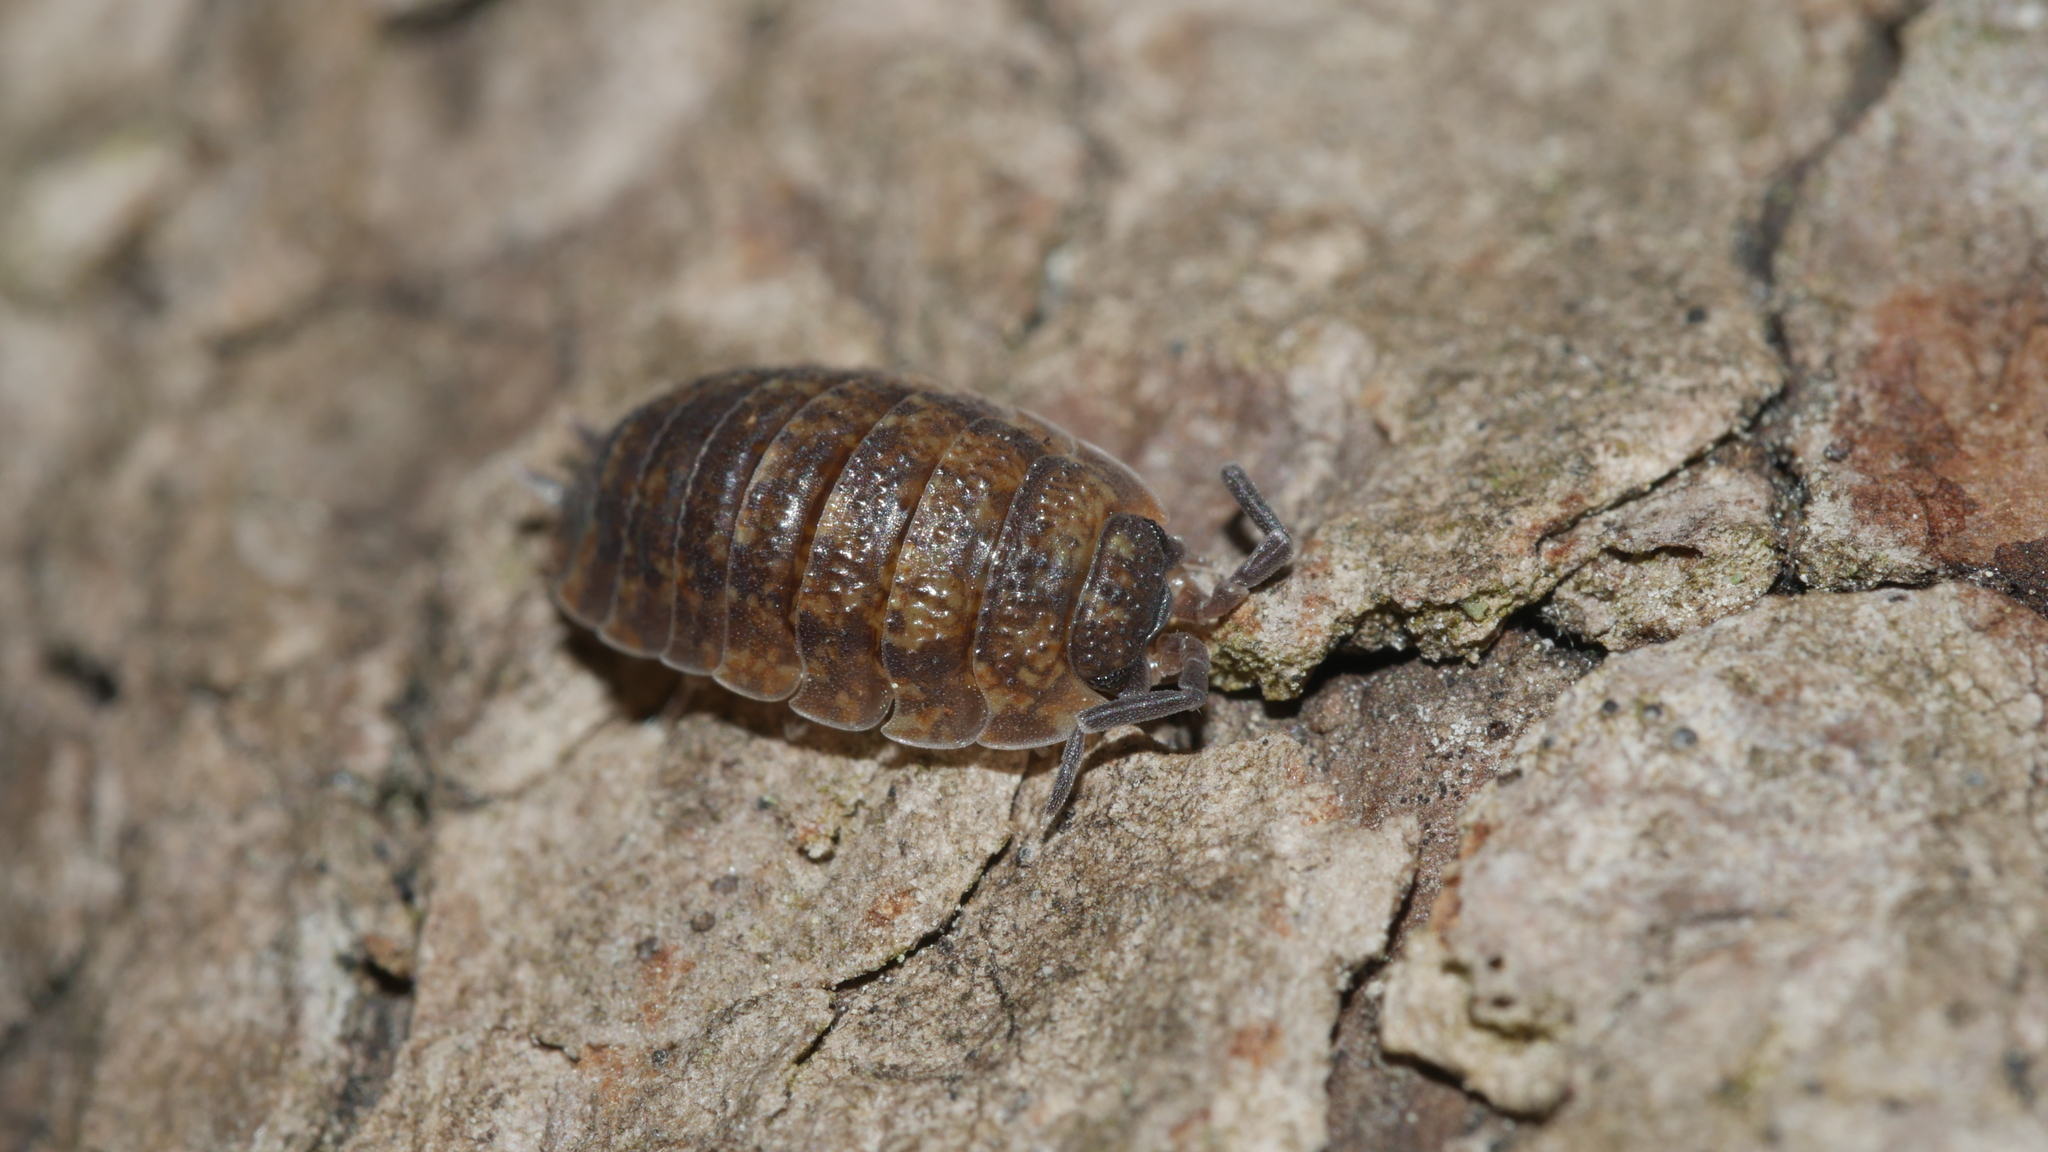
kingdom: Animalia
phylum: Arthropoda
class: Malacostraca
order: Isopoda
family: Porcellionidae
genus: Porcellio
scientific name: Porcellio scaber
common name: Common rough woodlouse
